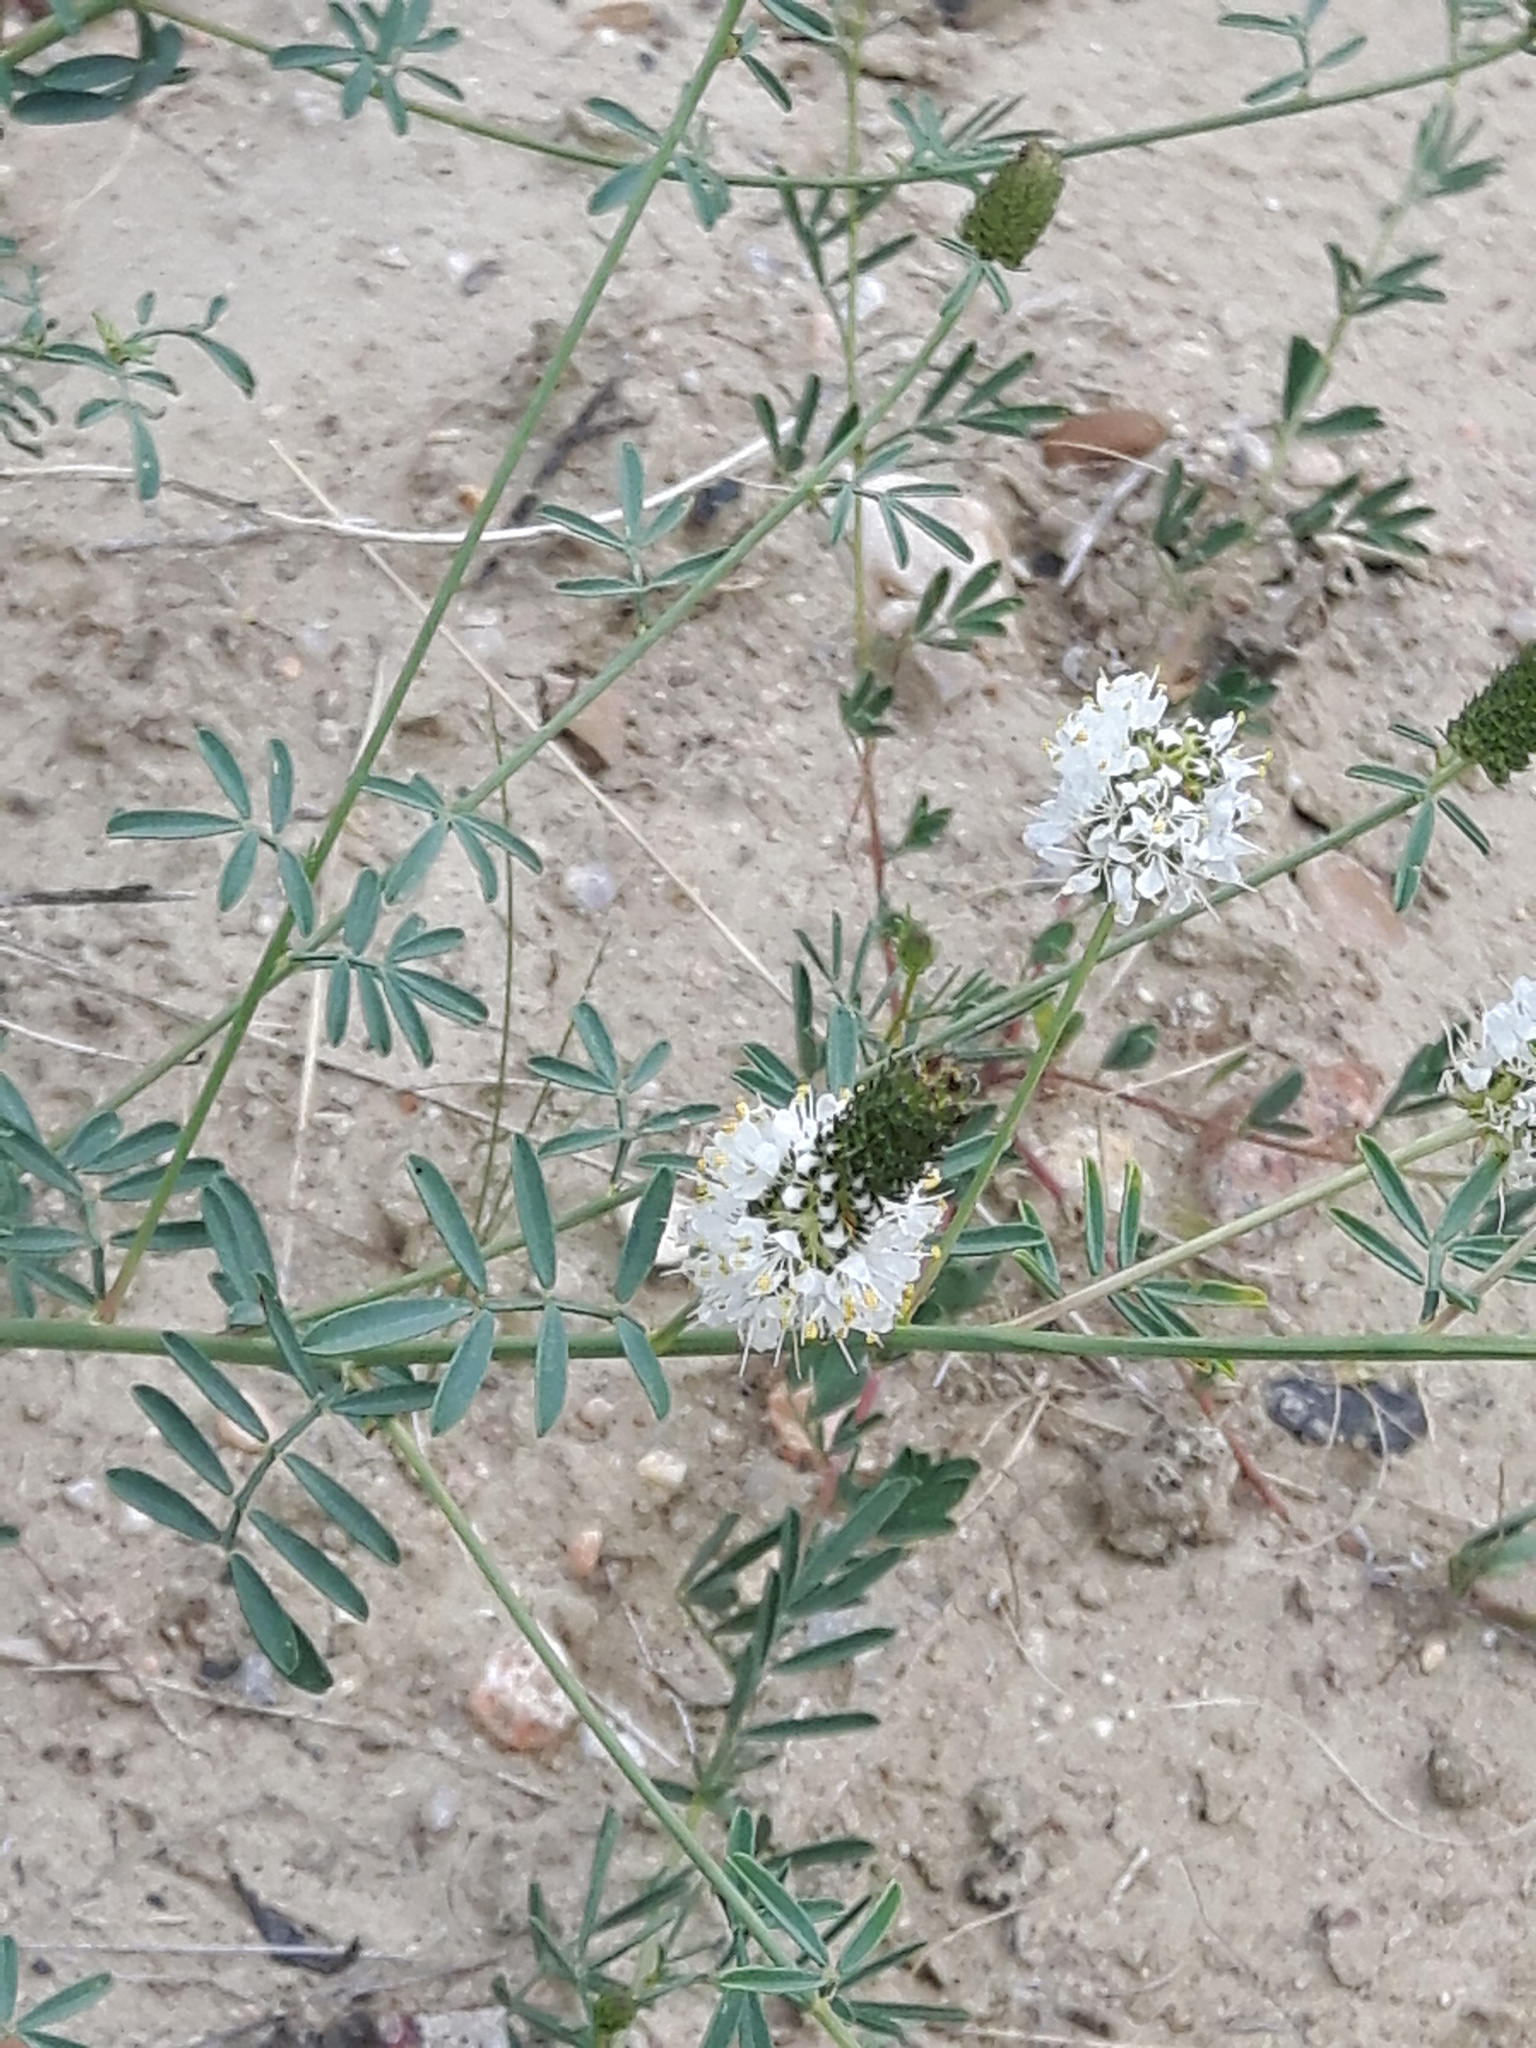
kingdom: Plantae
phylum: Tracheophyta
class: Magnoliopsida
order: Fabales
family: Fabaceae
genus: Dalea
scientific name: Dalea candida
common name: White prairie-clover
